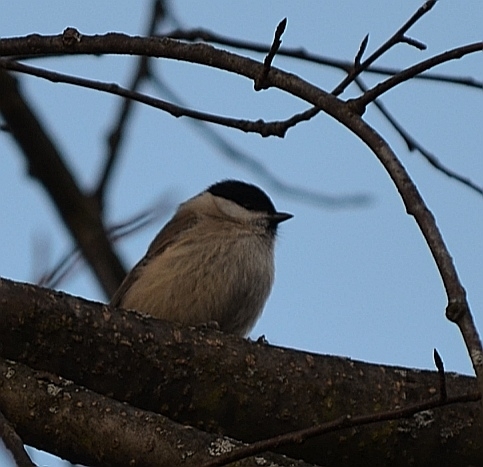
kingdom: Animalia
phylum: Chordata
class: Aves
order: Passeriformes
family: Paridae
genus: Poecile
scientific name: Poecile palustris
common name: Marsh tit
